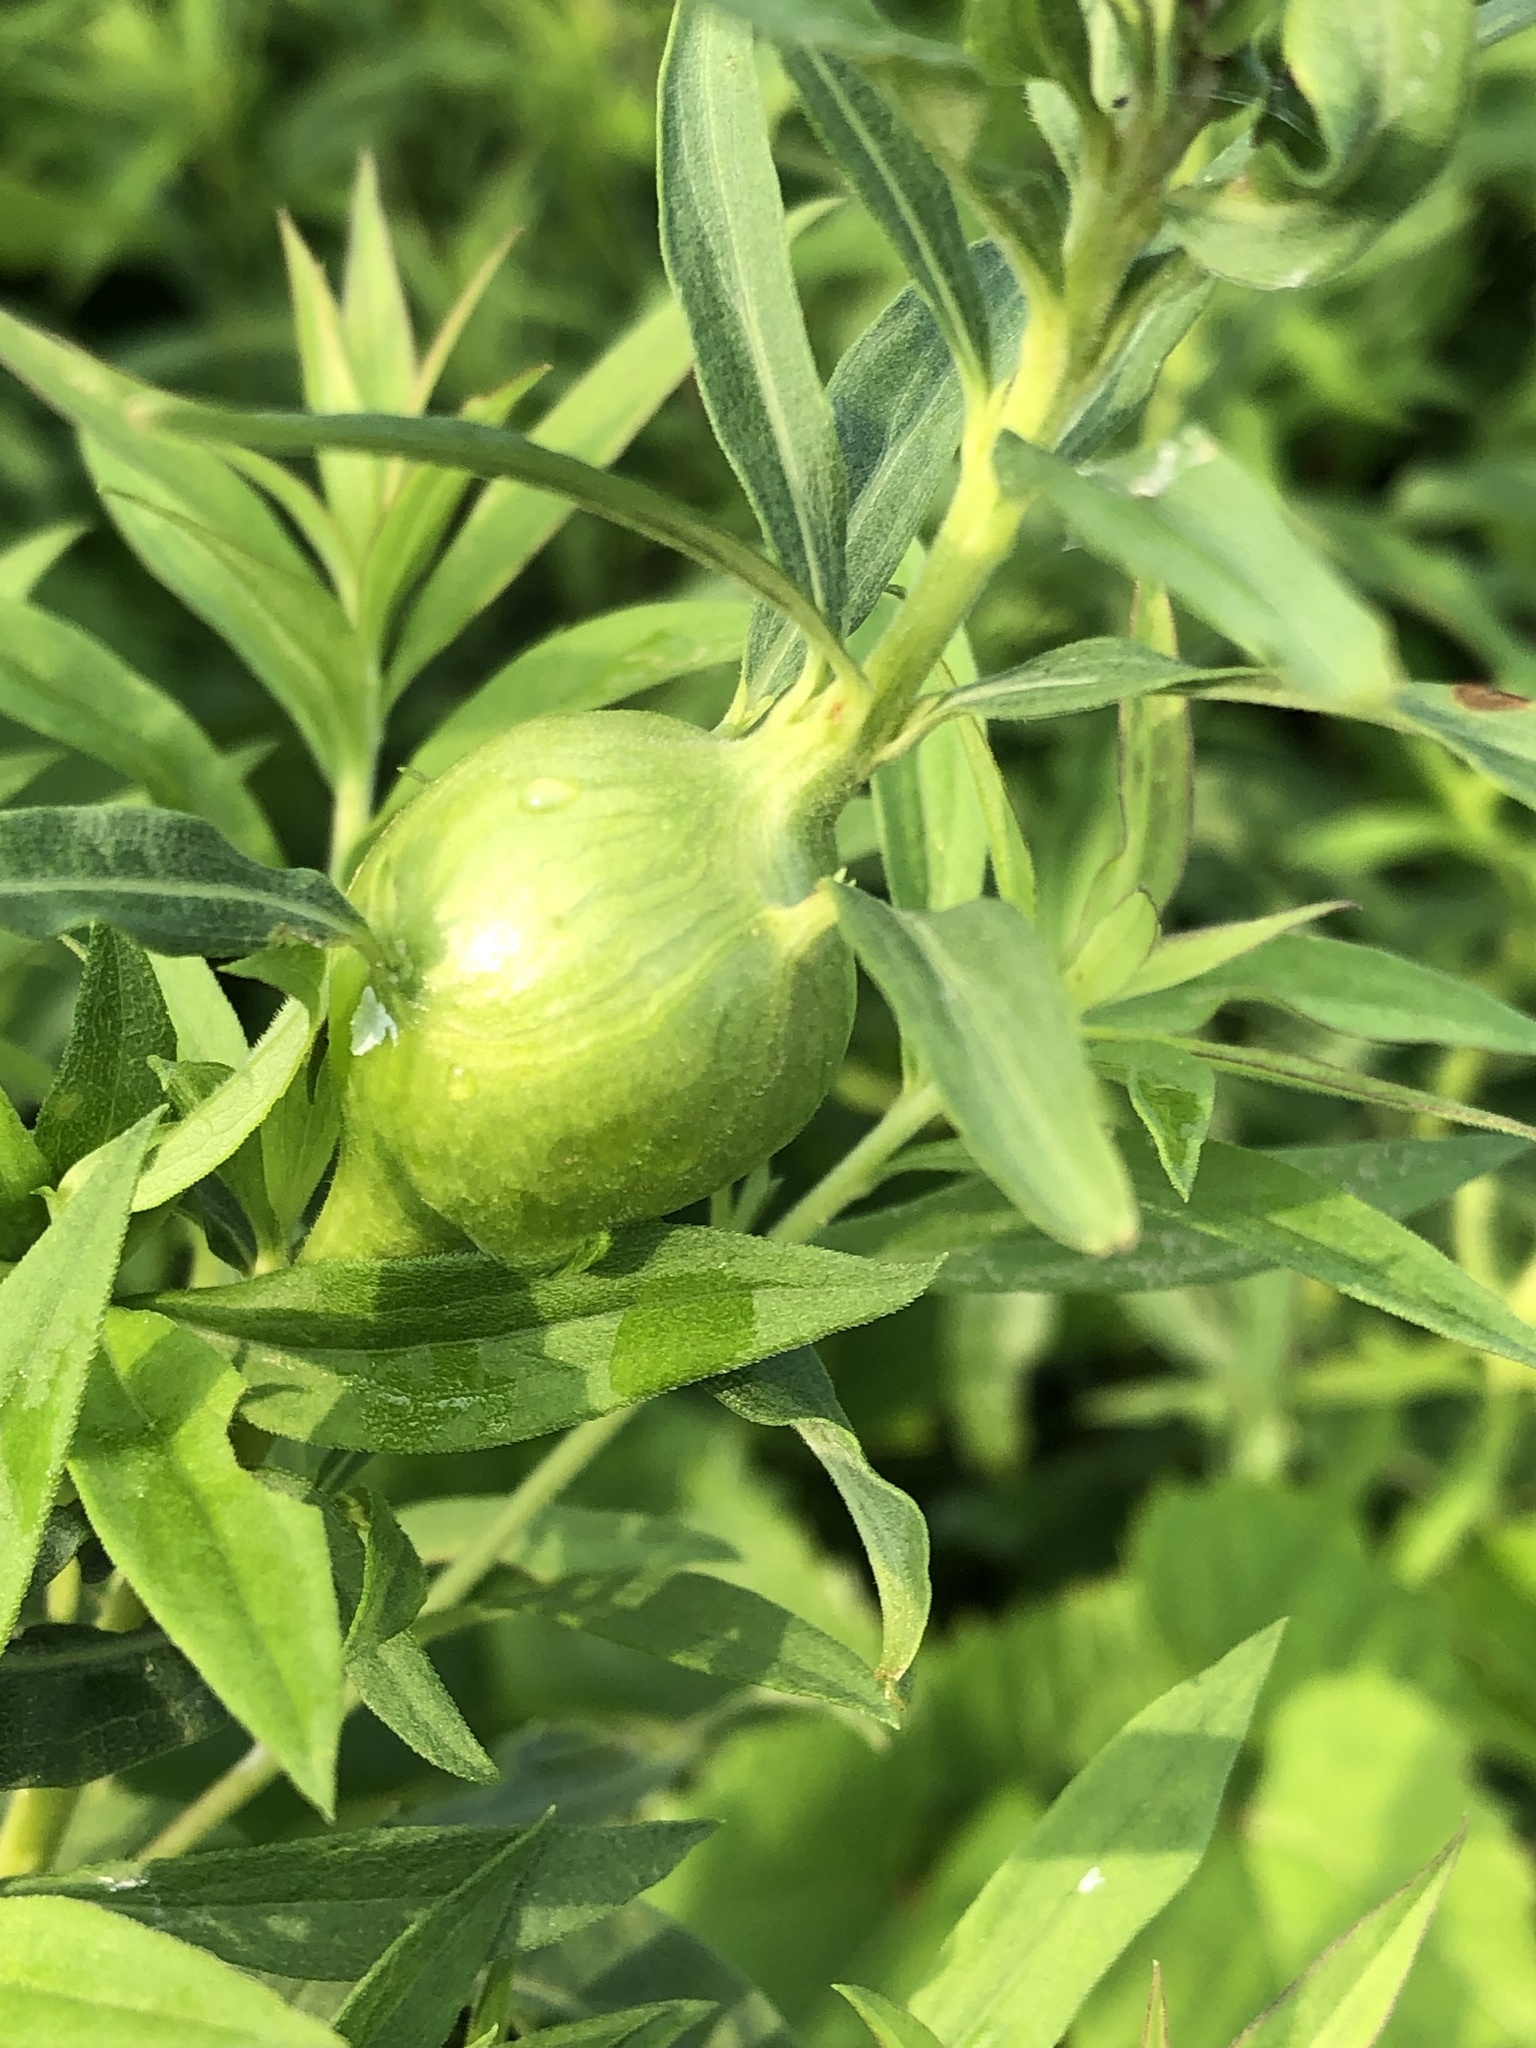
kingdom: Animalia
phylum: Arthropoda
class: Insecta
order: Diptera
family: Tephritidae
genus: Eurosta
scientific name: Eurosta solidaginis
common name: Goldenrod gall fly
